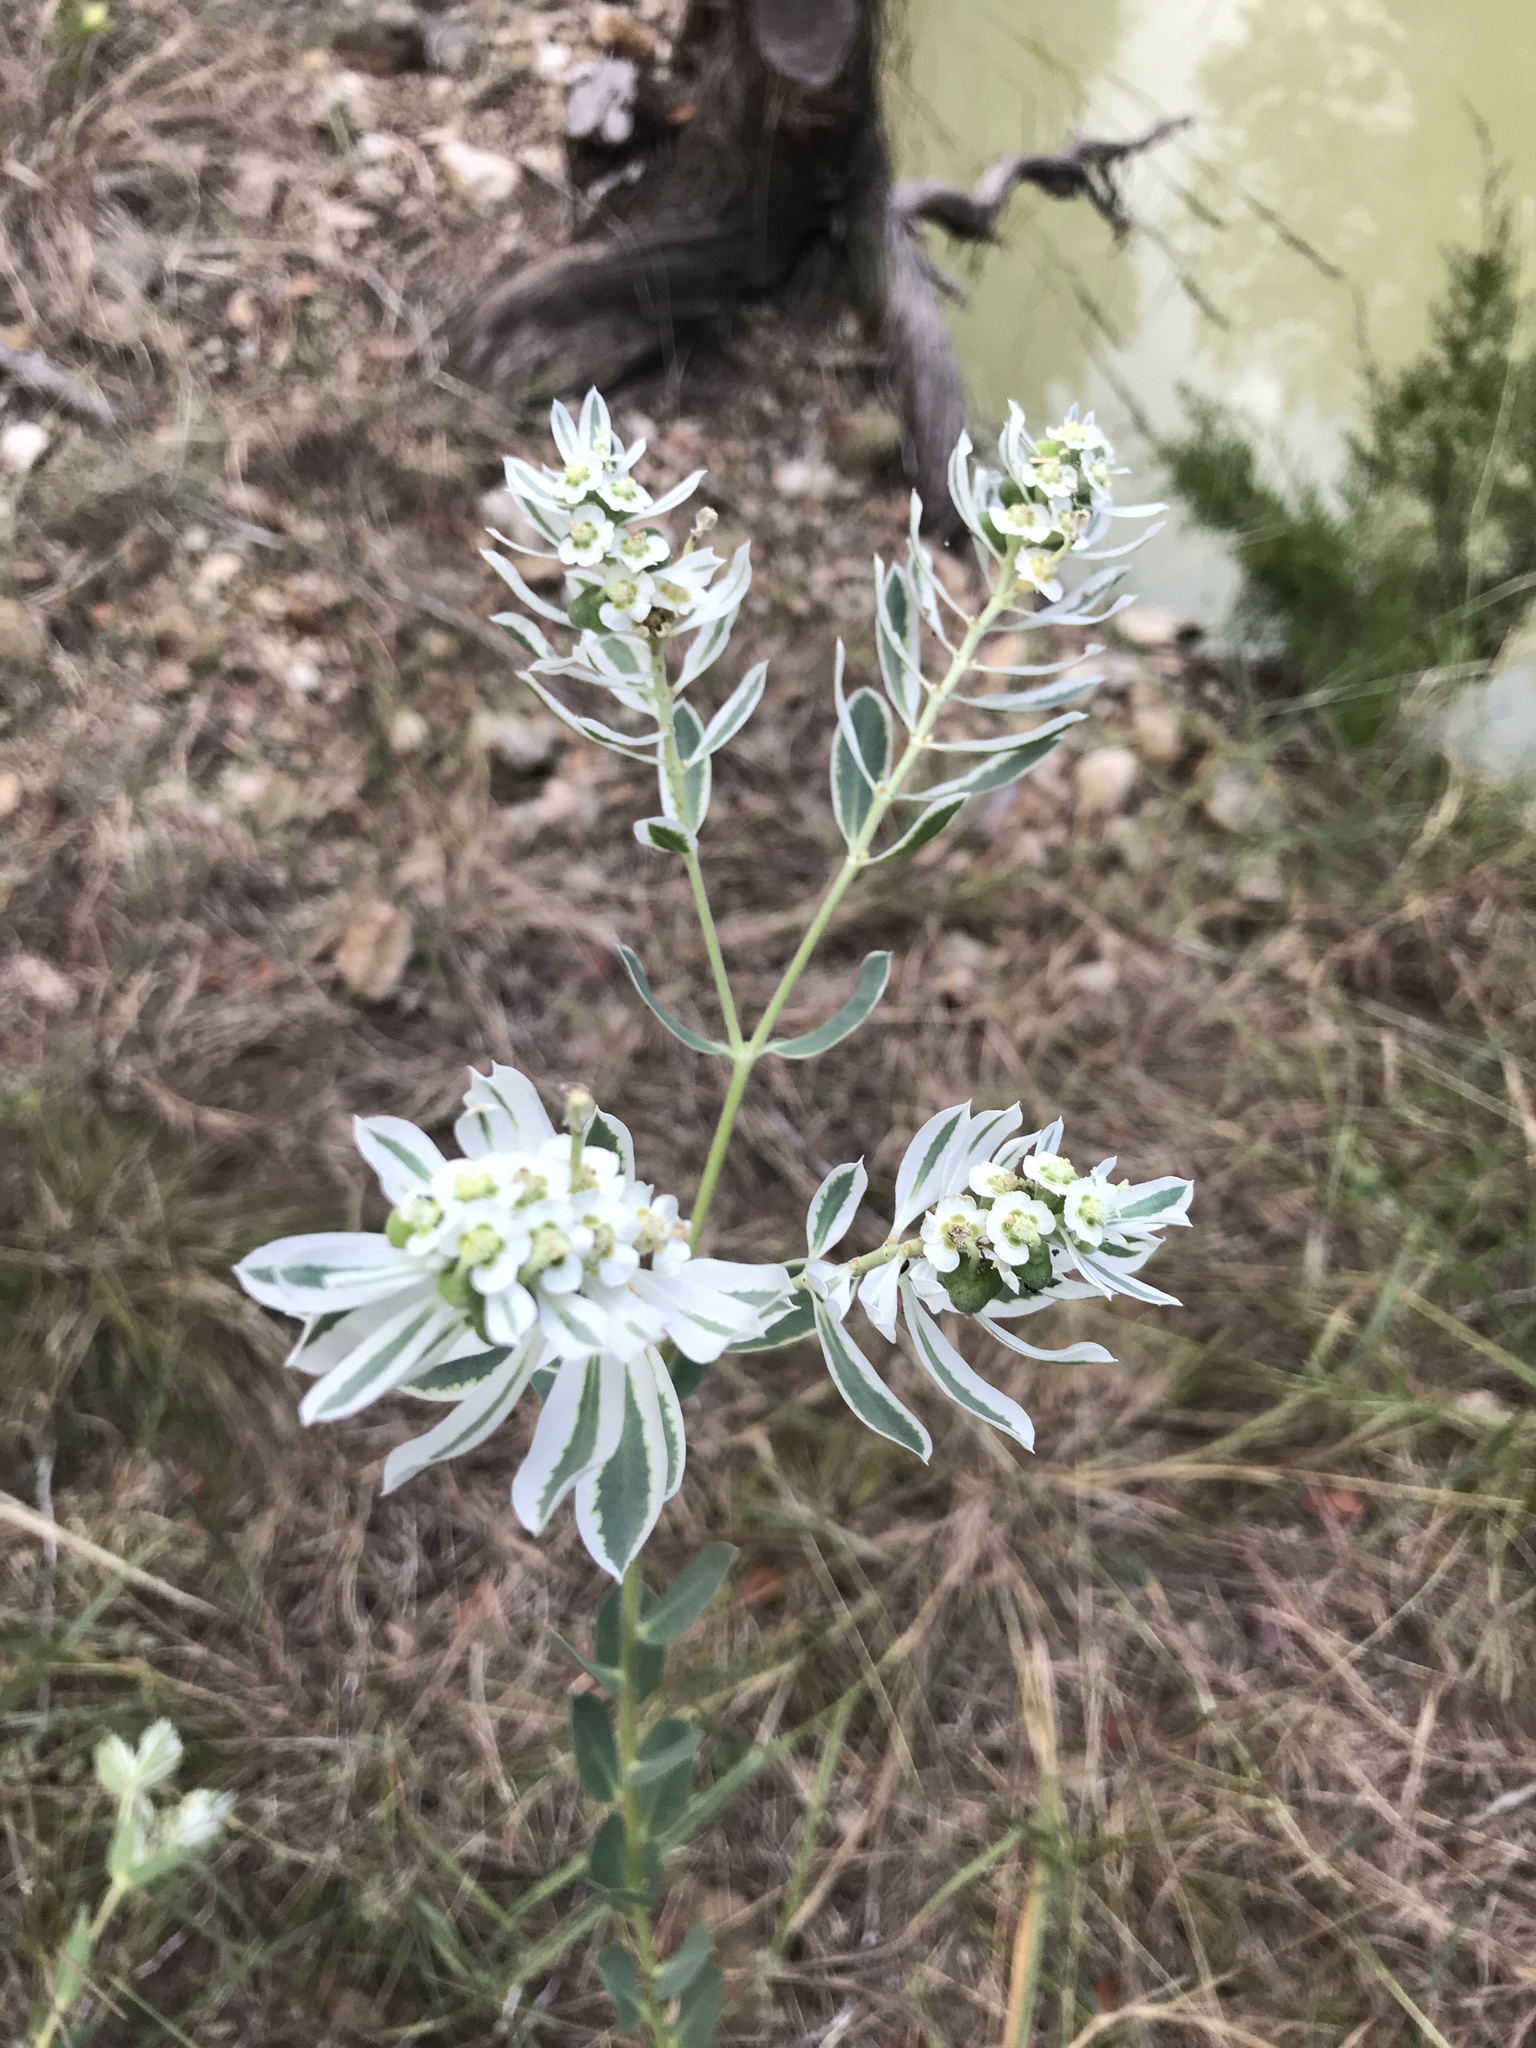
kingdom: Plantae
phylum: Tracheophyta
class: Magnoliopsida
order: Malpighiales
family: Euphorbiaceae
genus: Euphorbia
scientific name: Euphorbia marginata
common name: Ghostweed
